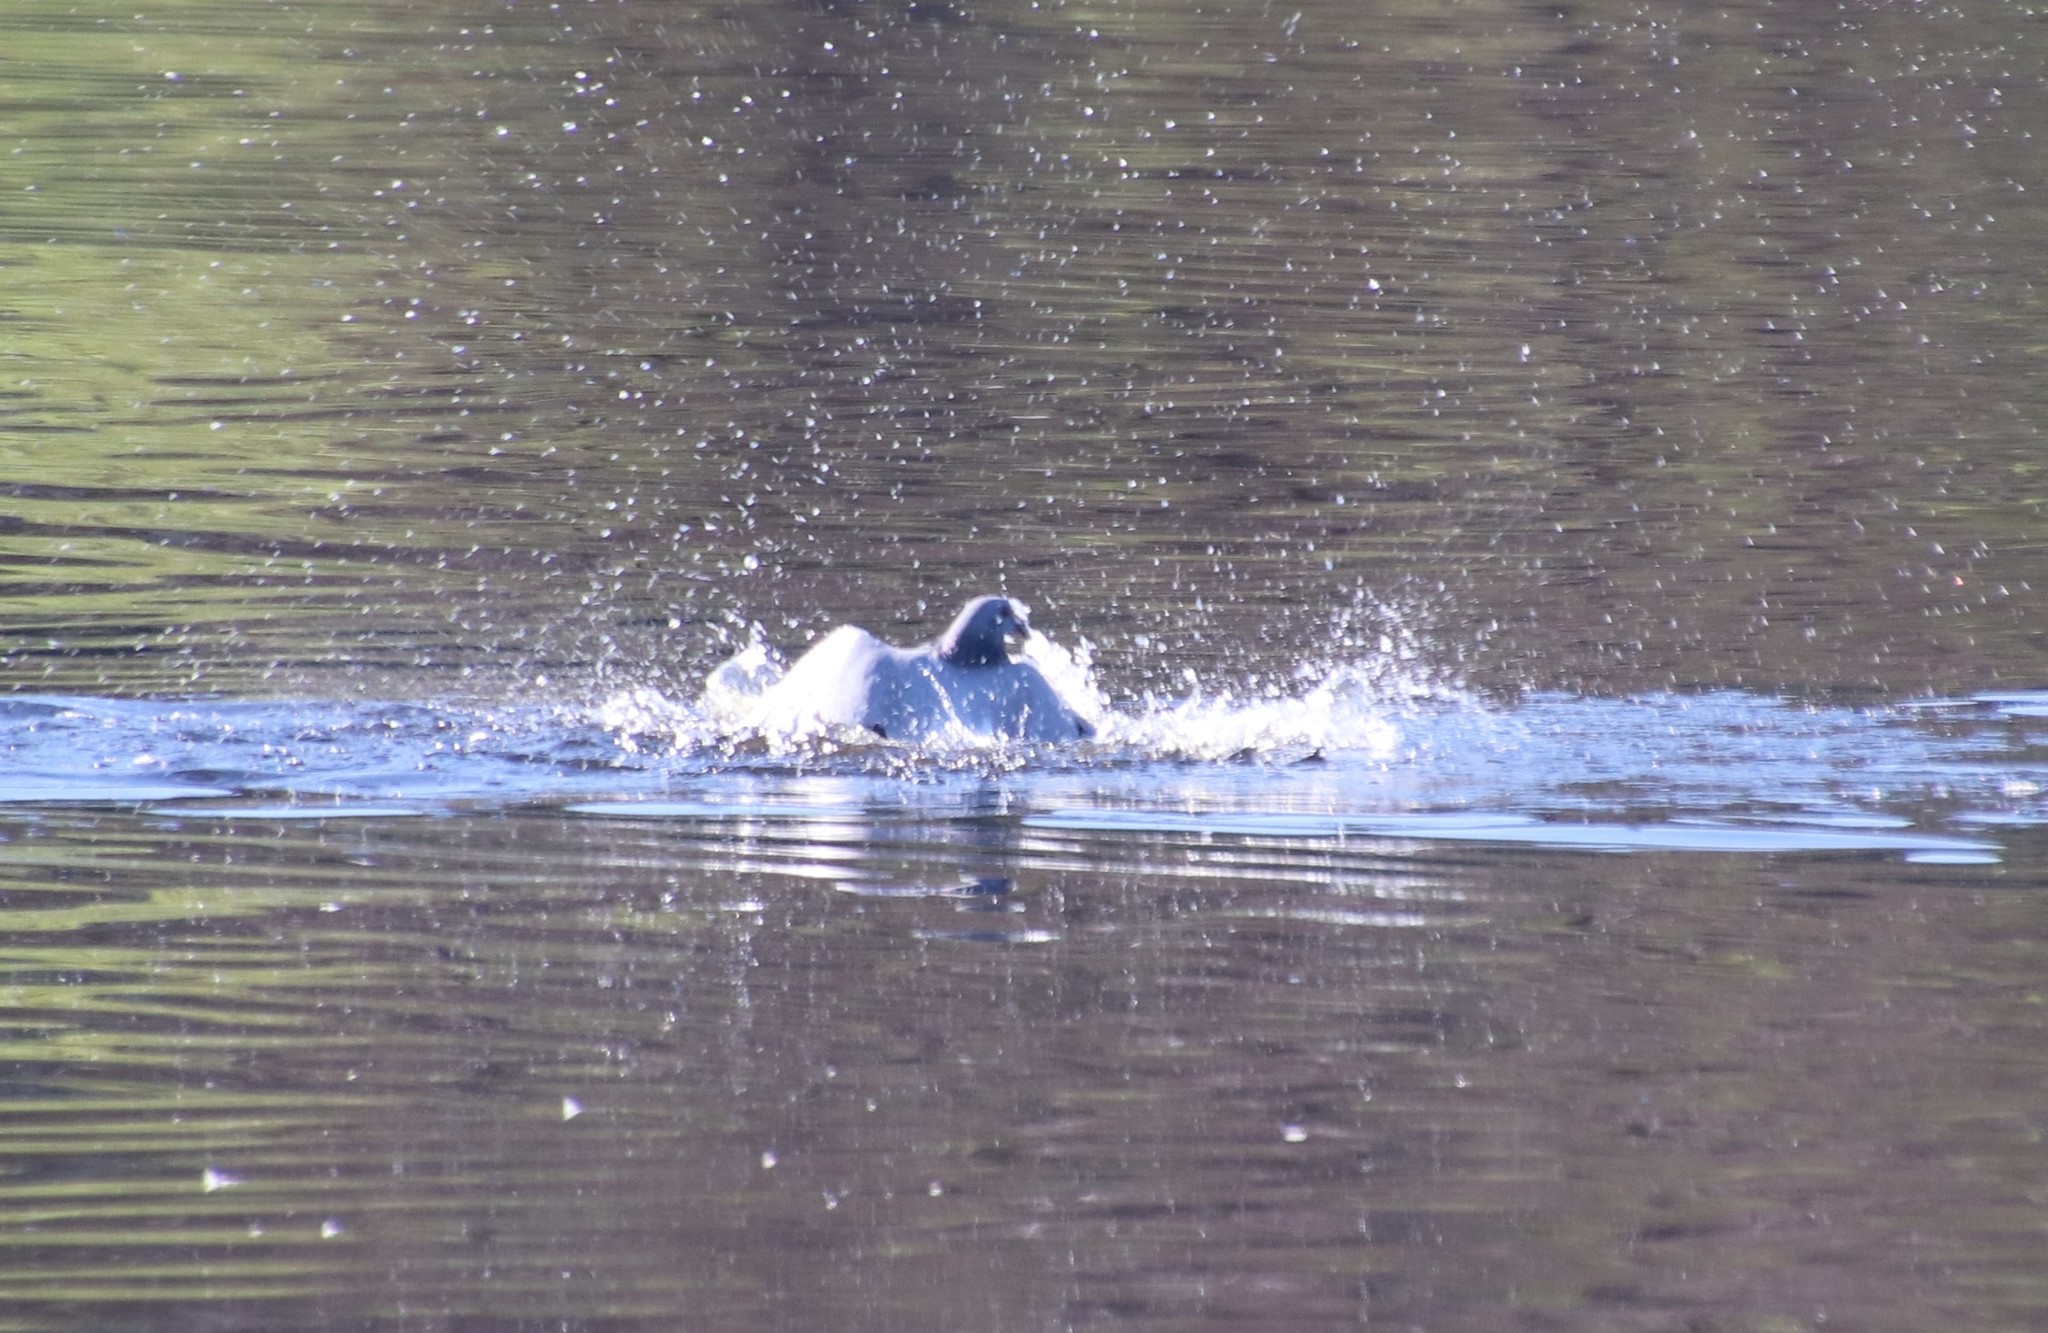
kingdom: Animalia
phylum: Chordata
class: Aves
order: Columbiformes
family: Columbidae
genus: Columba
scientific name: Columba livia
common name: Rock pigeon
